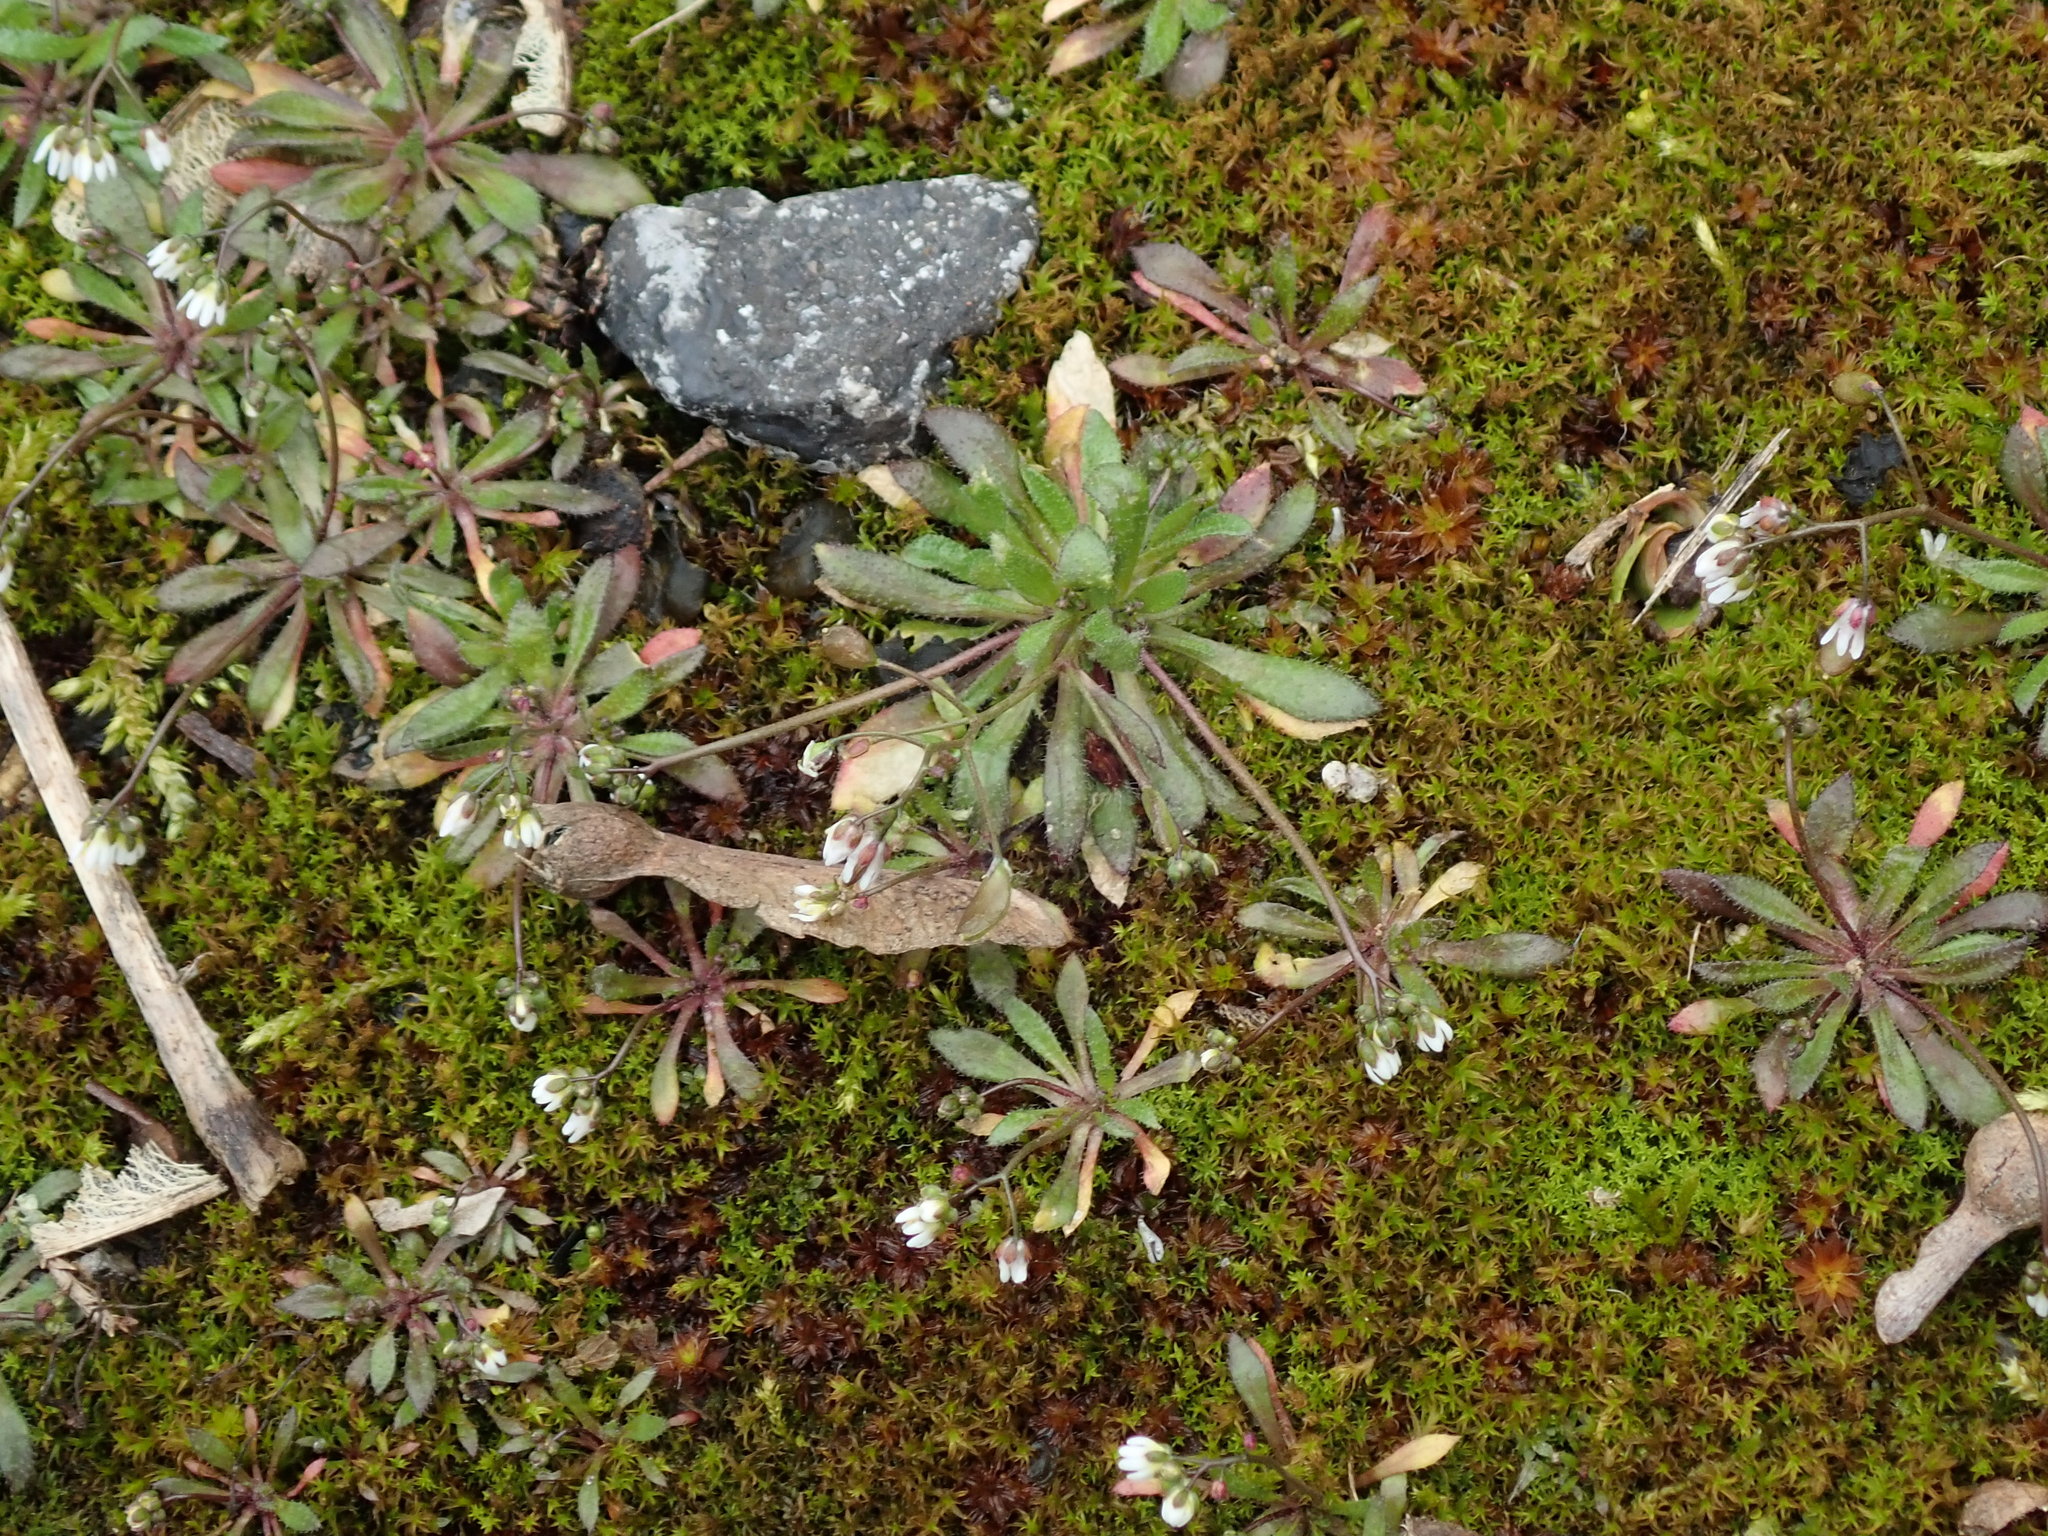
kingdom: Plantae
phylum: Tracheophyta
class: Magnoliopsida
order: Brassicales
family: Brassicaceae
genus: Draba
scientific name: Draba verna
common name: Spring draba
